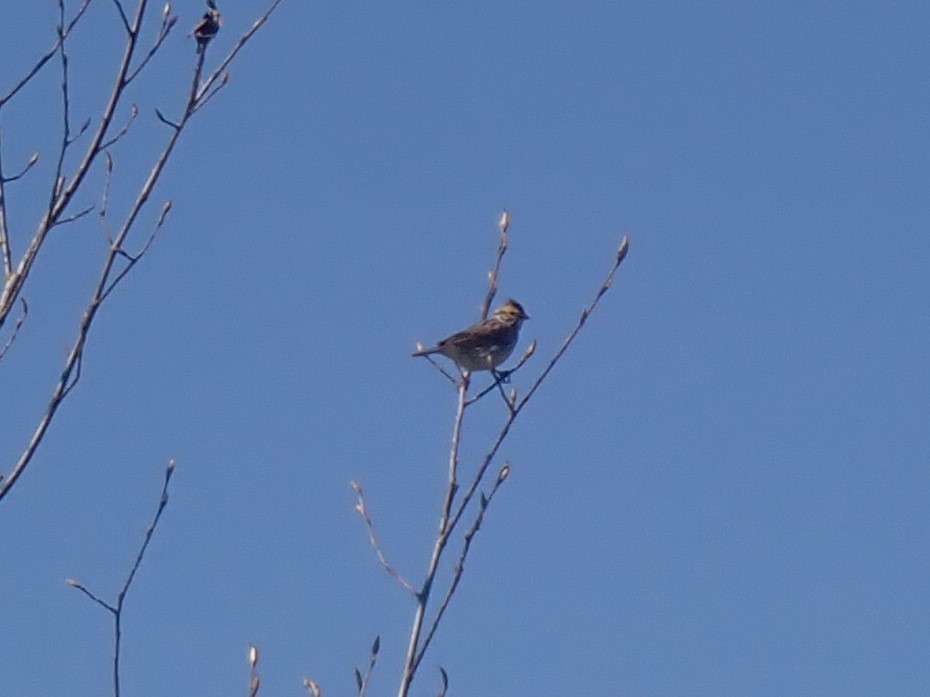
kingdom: Animalia
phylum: Chordata
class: Aves
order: Passeriformes
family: Passerellidae
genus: Passerculus
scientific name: Passerculus sandwichensis
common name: Savannah sparrow
